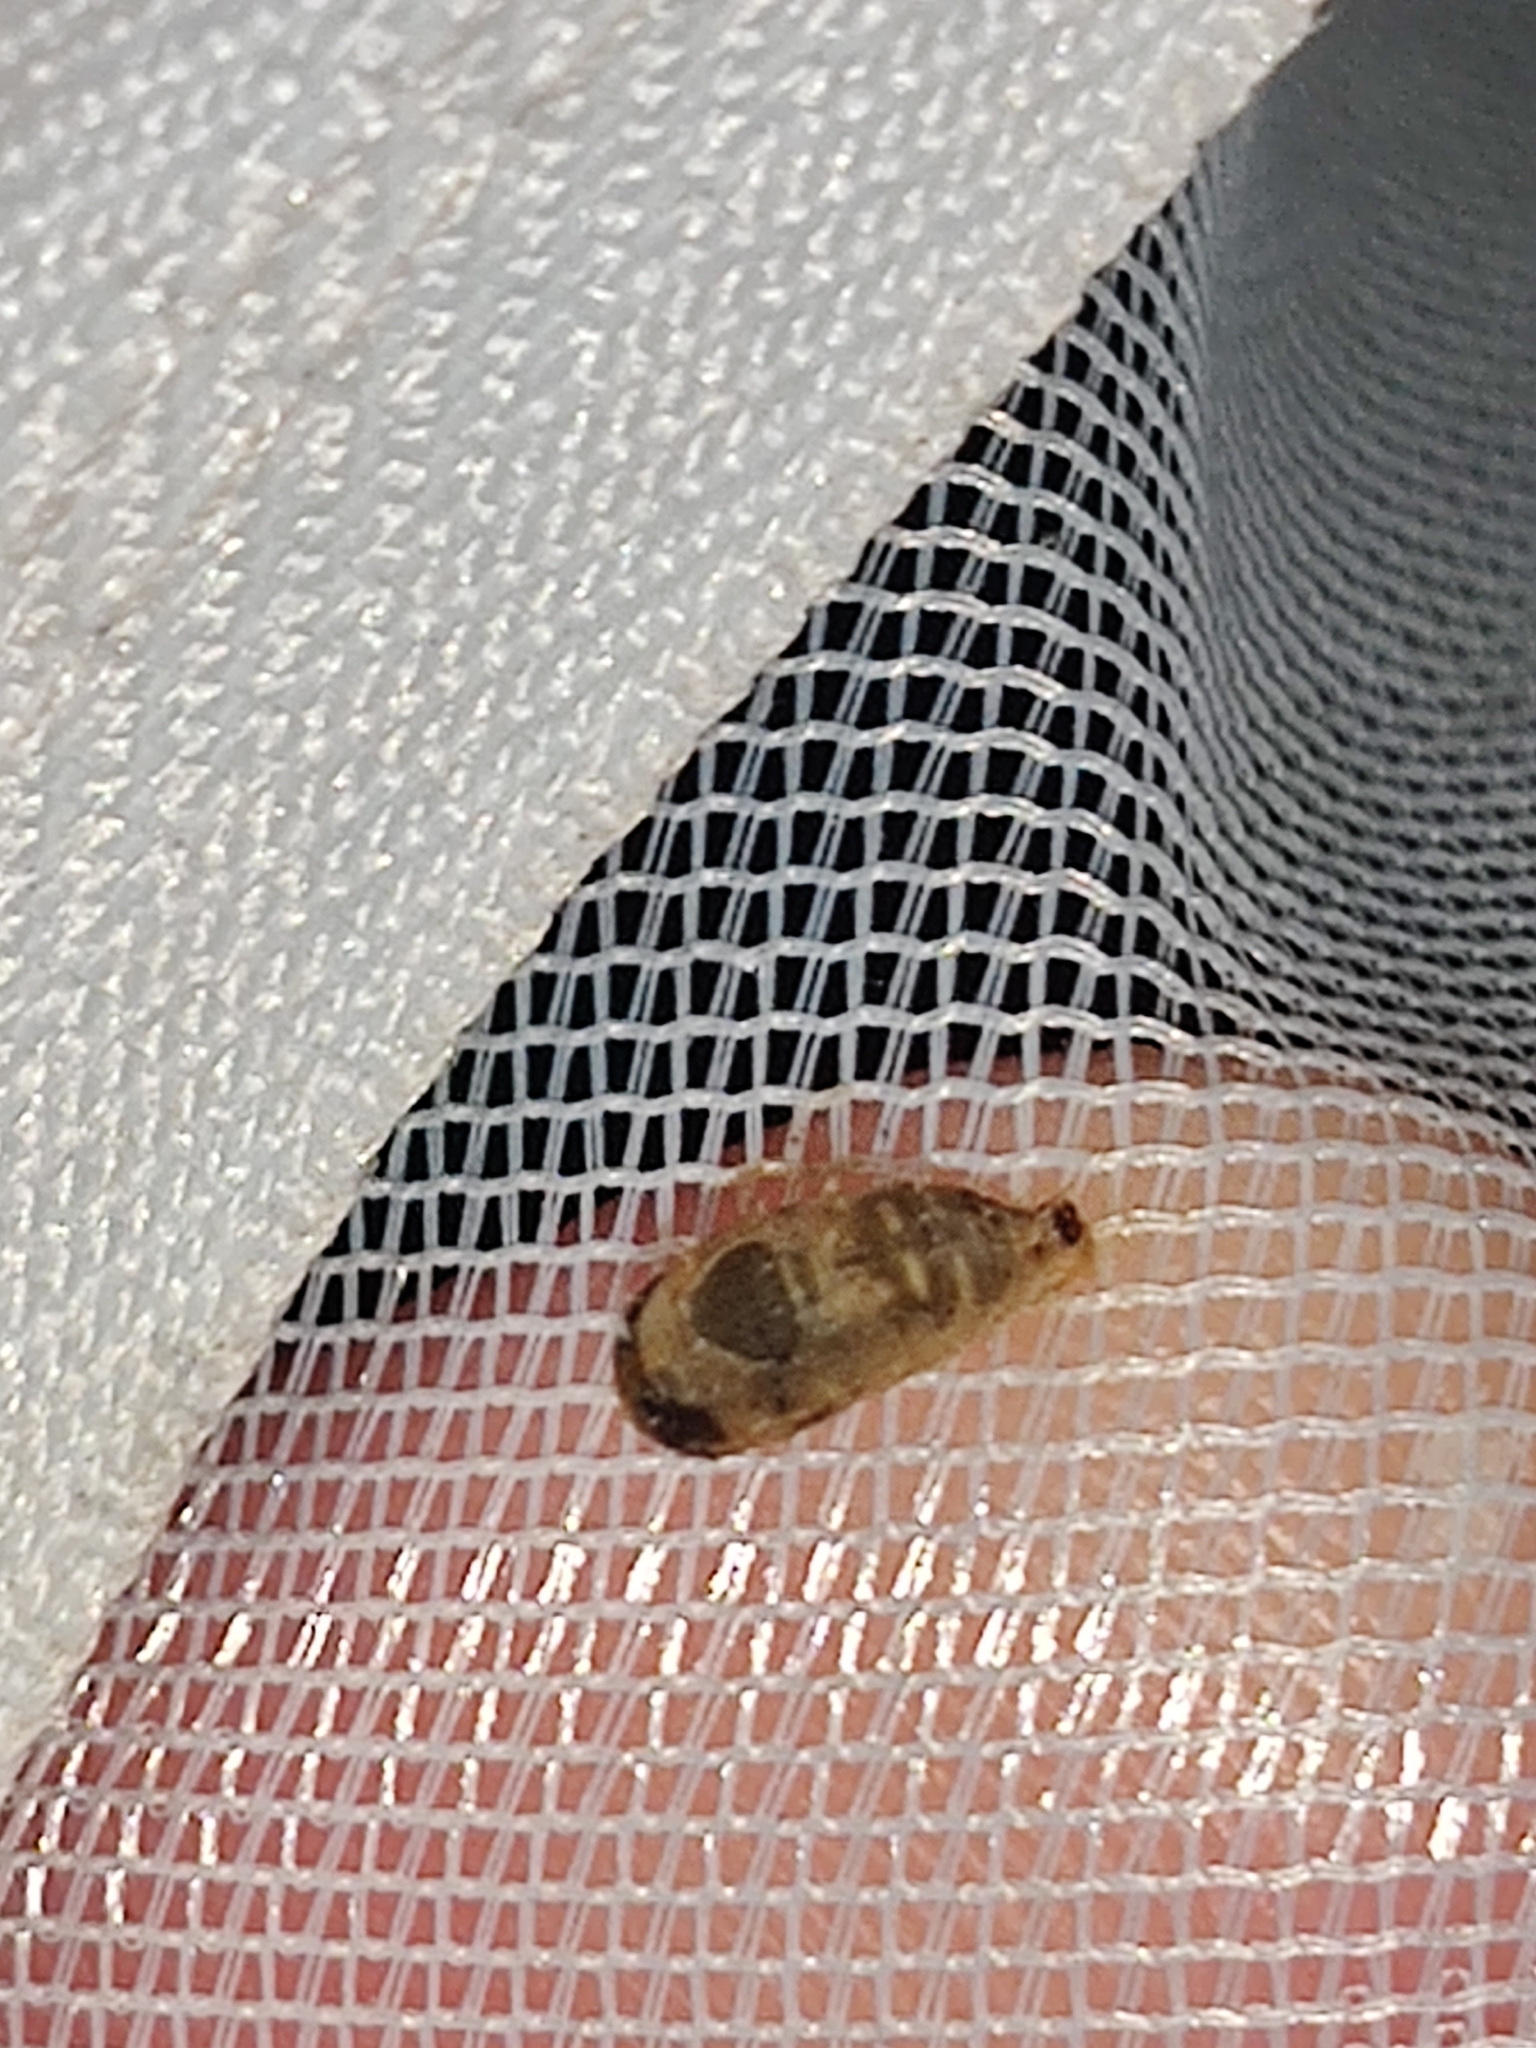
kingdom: Animalia
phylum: Arthropoda
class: Insecta
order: Diptera
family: Syrphidae
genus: Dioprosopa
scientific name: Dioprosopa clavatus
